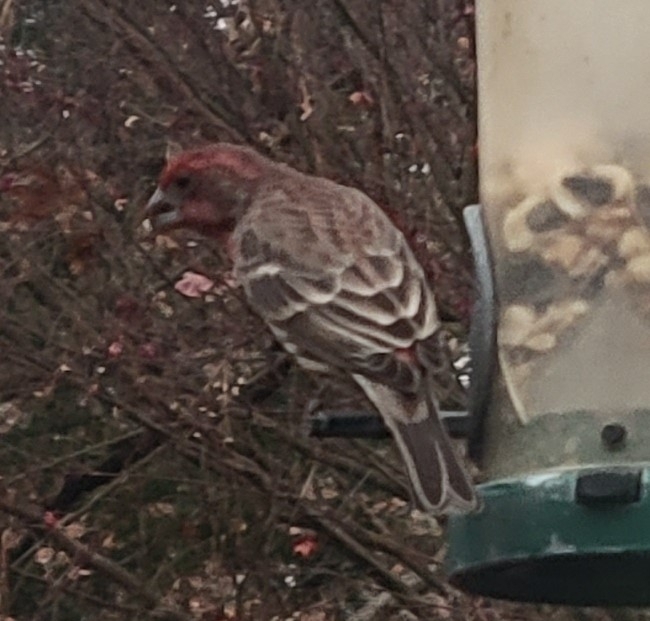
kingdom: Animalia
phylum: Chordata
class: Aves
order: Passeriformes
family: Fringillidae
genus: Haemorhous
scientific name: Haemorhous mexicanus
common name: House finch
